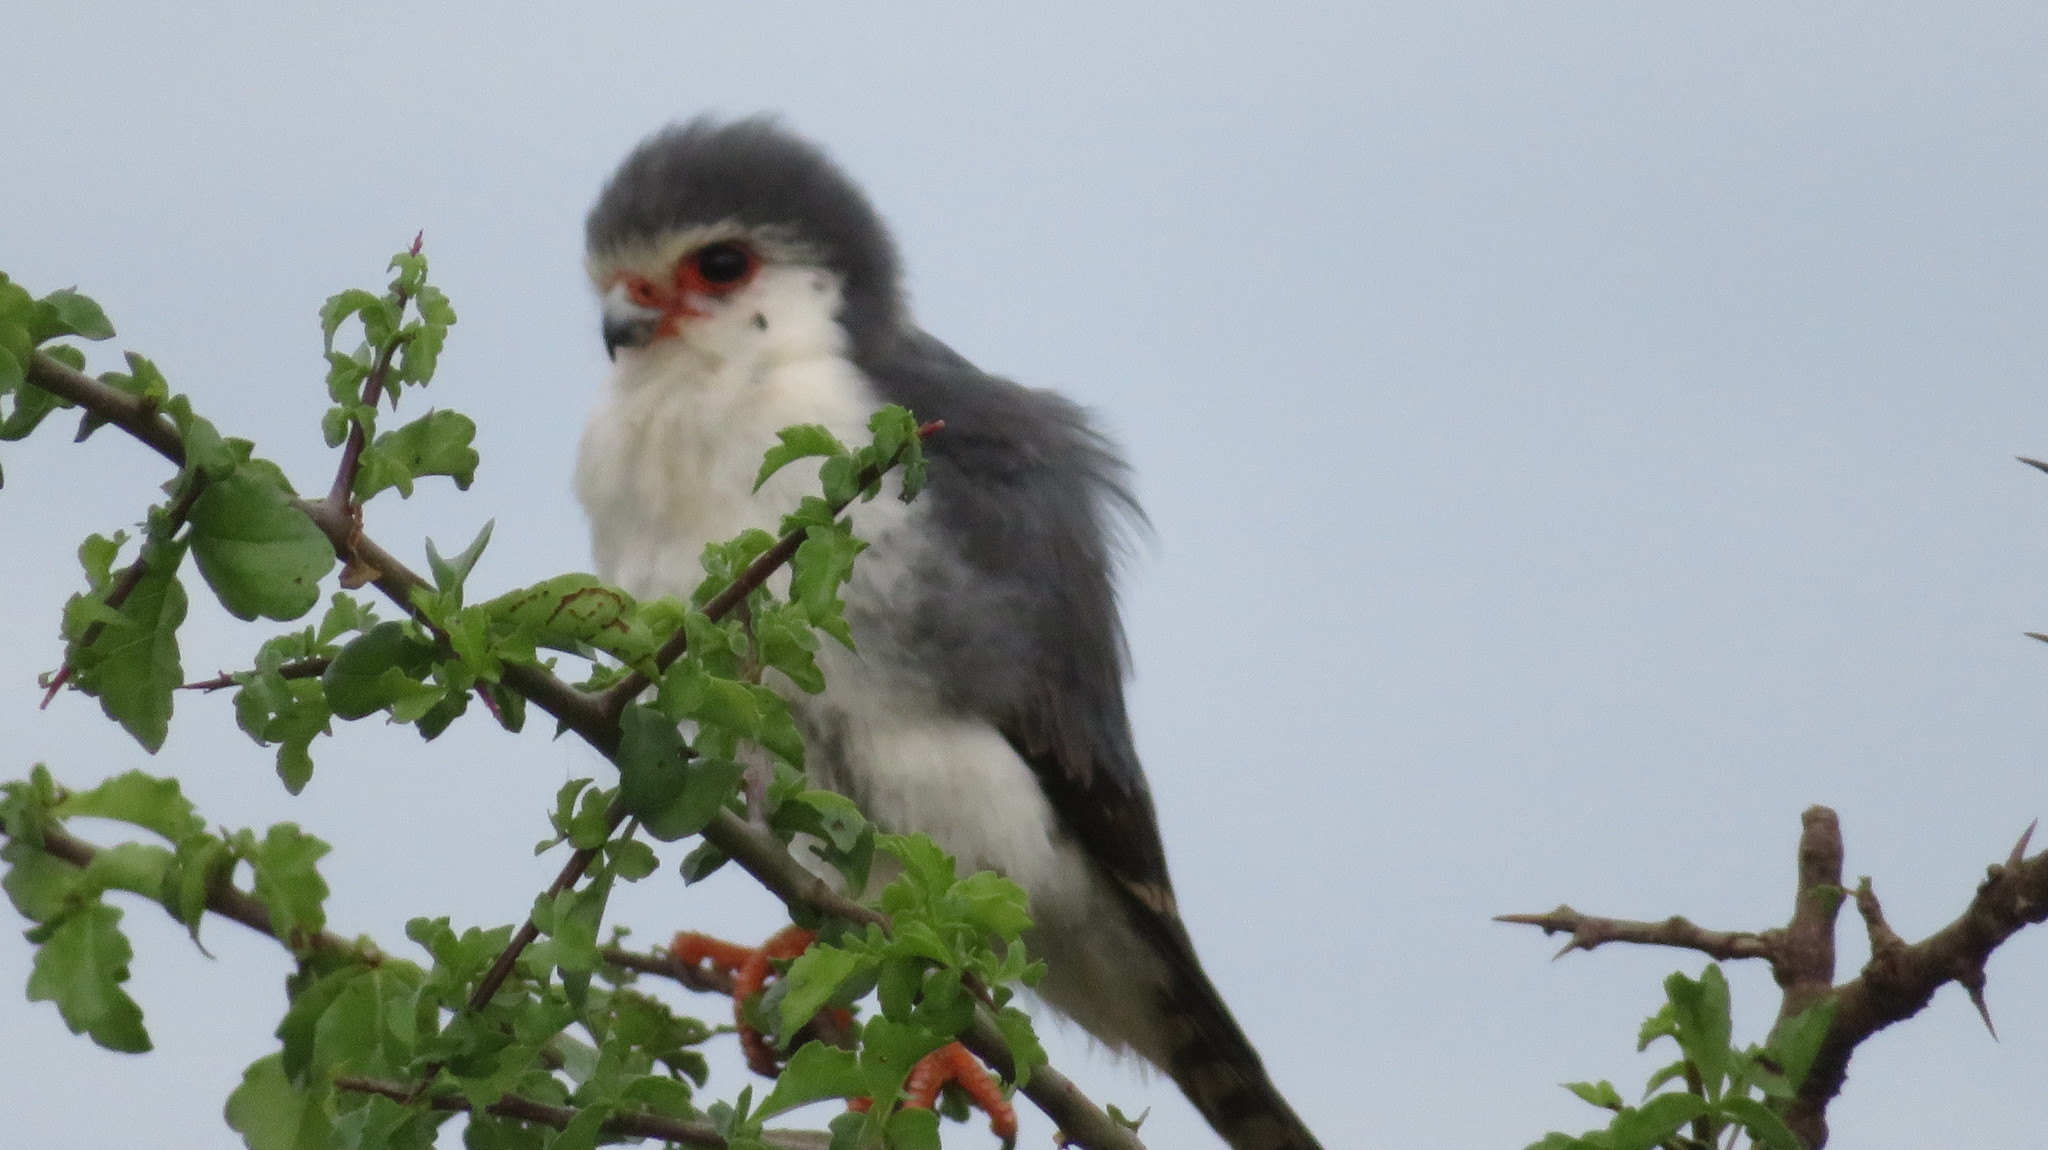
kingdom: Animalia
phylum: Chordata
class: Aves
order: Falconiformes
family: Falconidae
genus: Polihierax
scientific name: Polihierax semitorquatus
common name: Pygmy falcon
